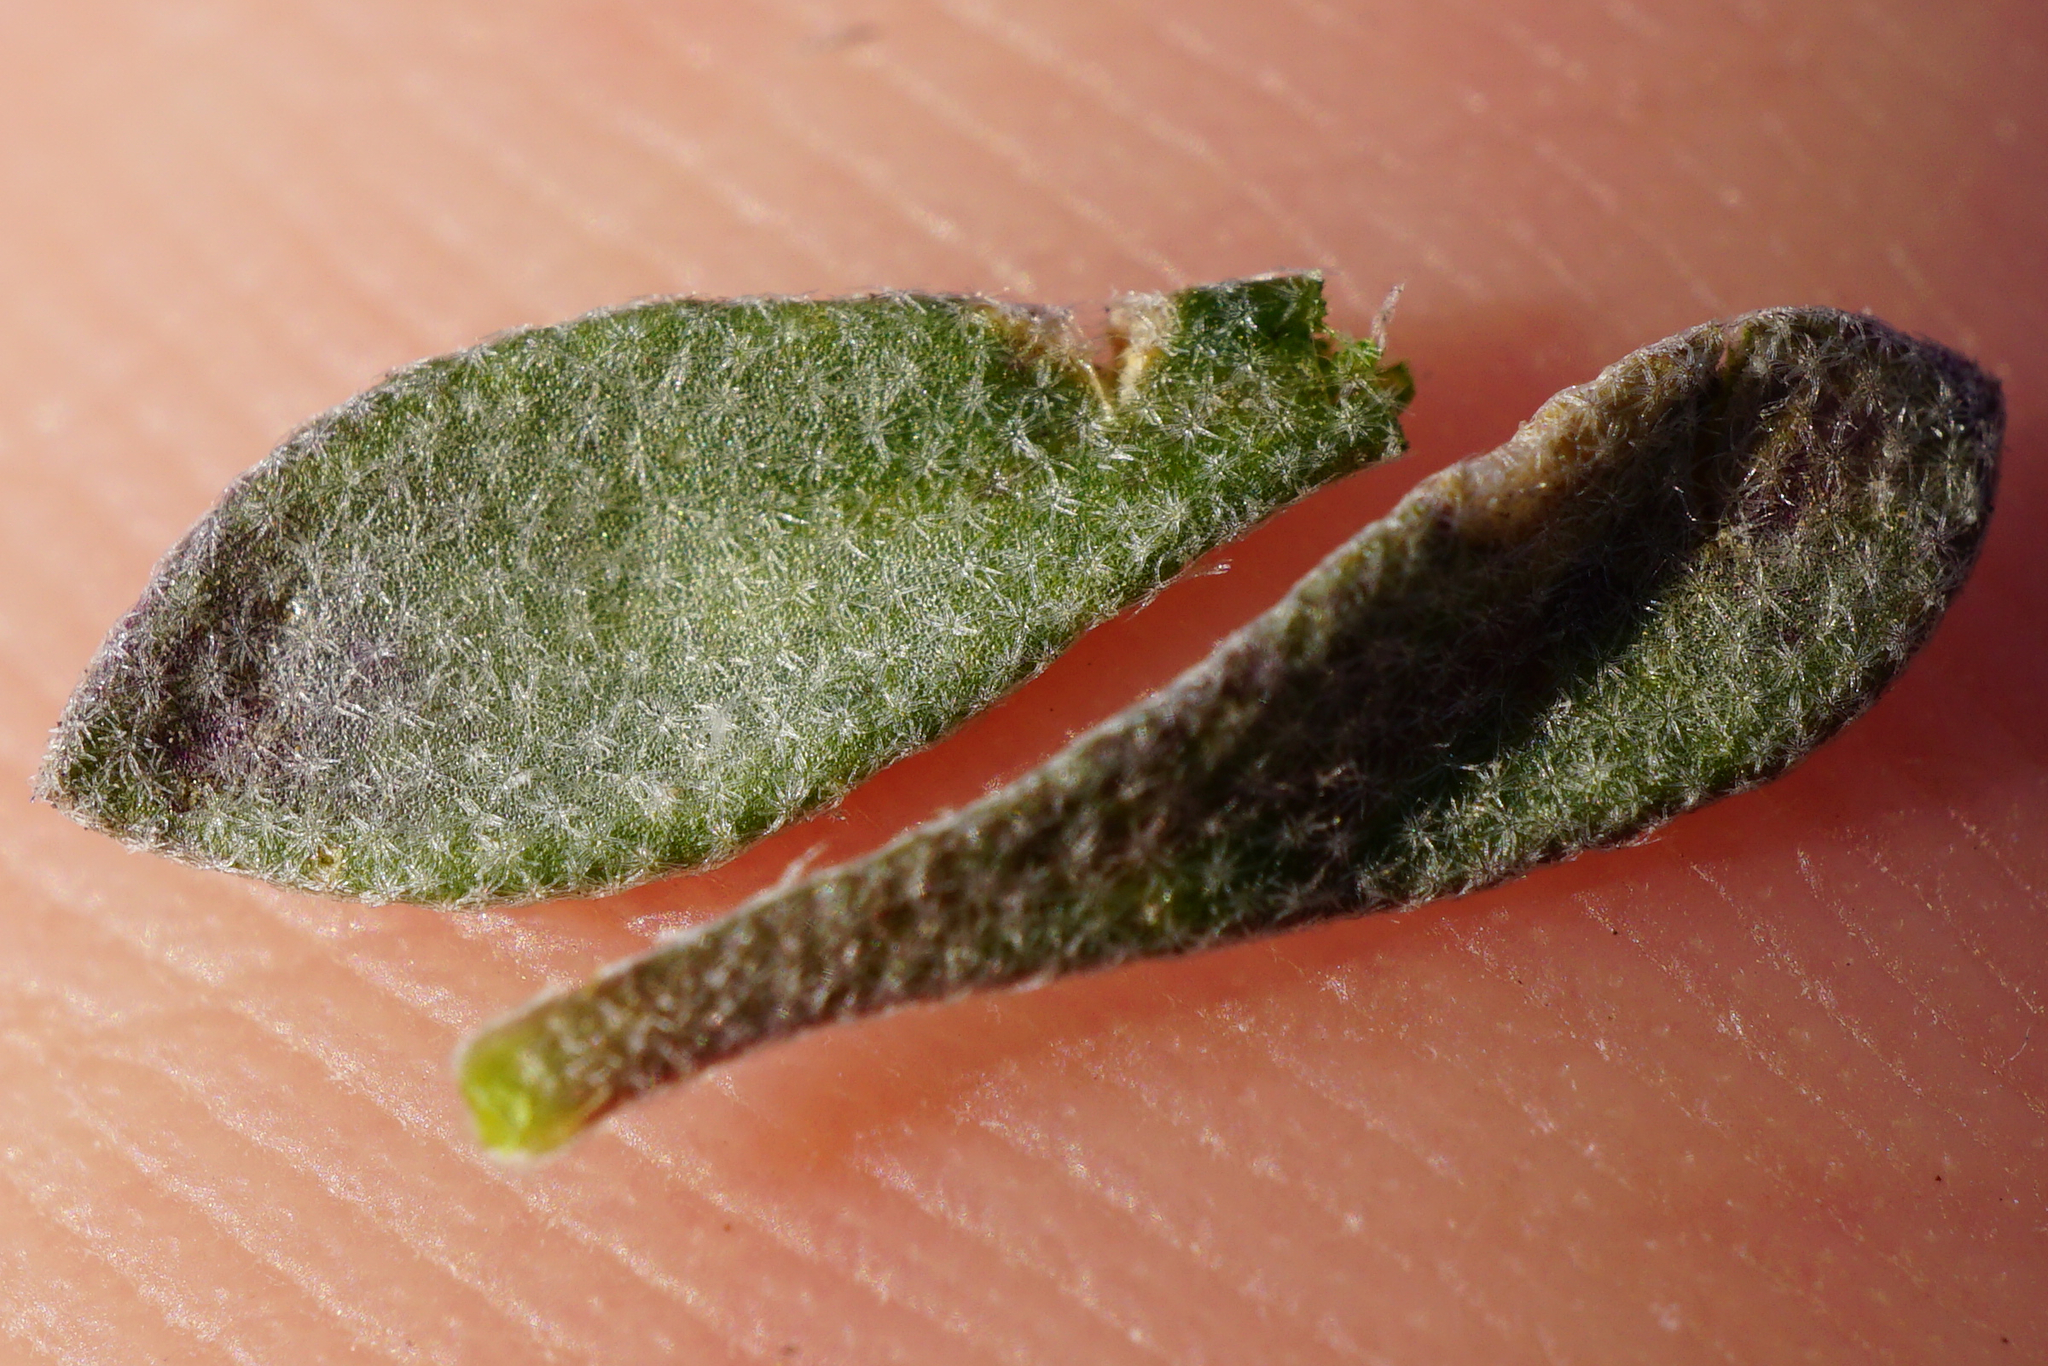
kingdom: Plantae
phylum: Tracheophyta
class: Magnoliopsida
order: Brassicales
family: Brassicaceae
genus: Alyssum
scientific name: Alyssum gmelinii
